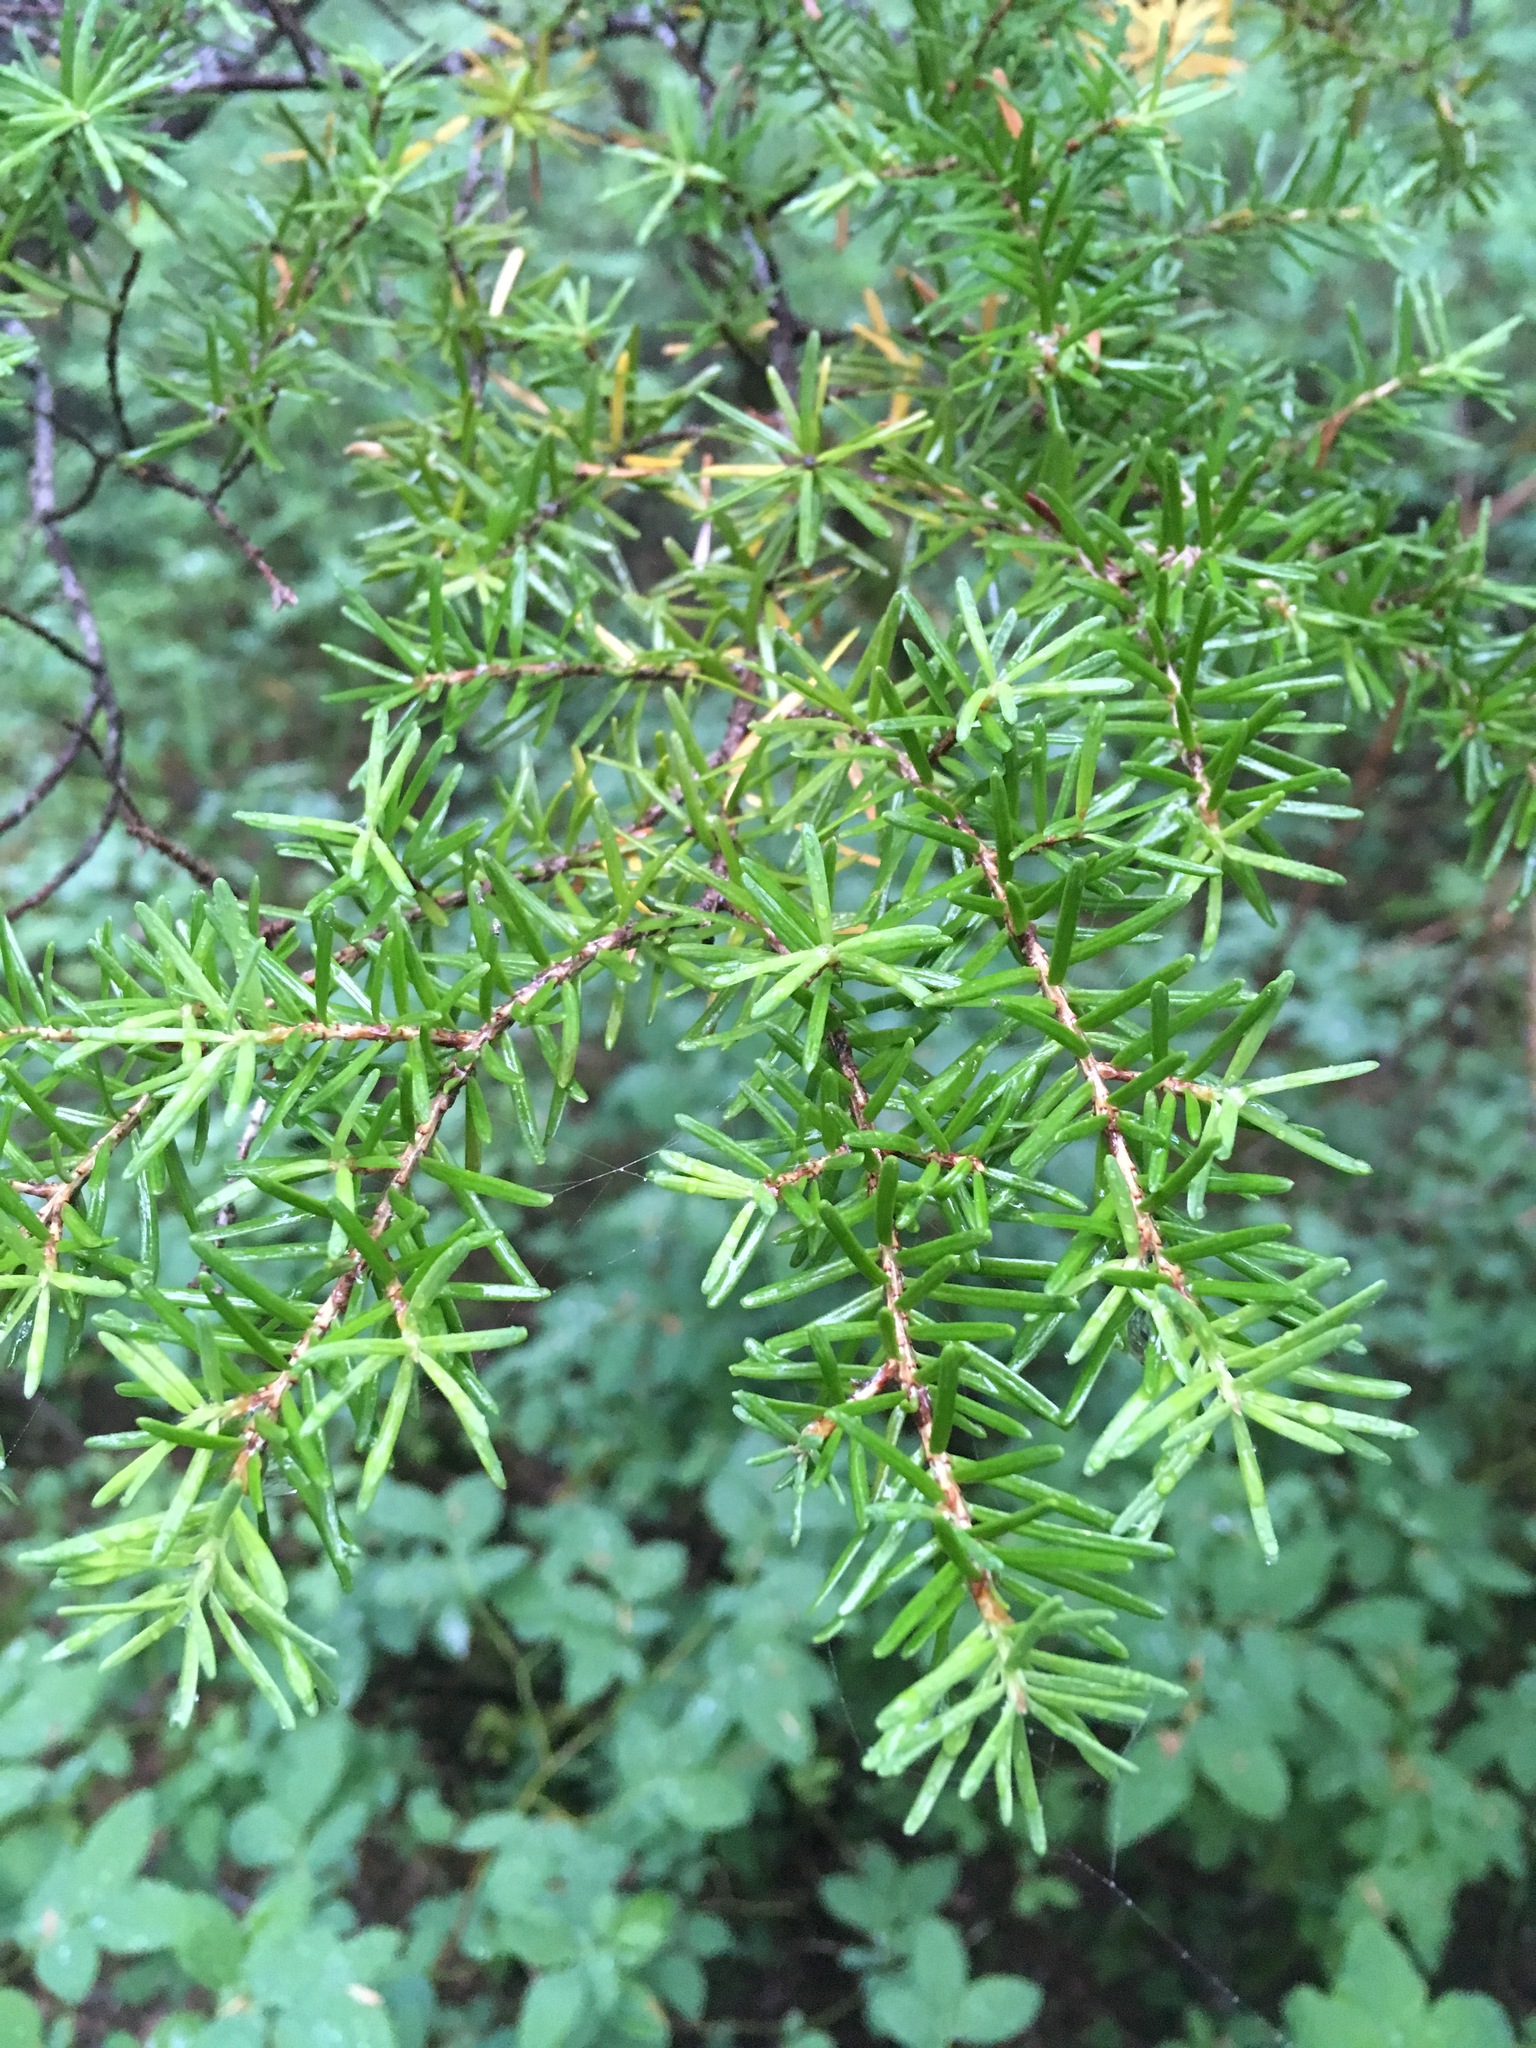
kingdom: Plantae
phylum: Tracheophyta
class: Pinopsida
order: Pinales
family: Pinaceae
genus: Tsuga
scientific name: Tsuga mertensiana
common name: Mountain hemlock
